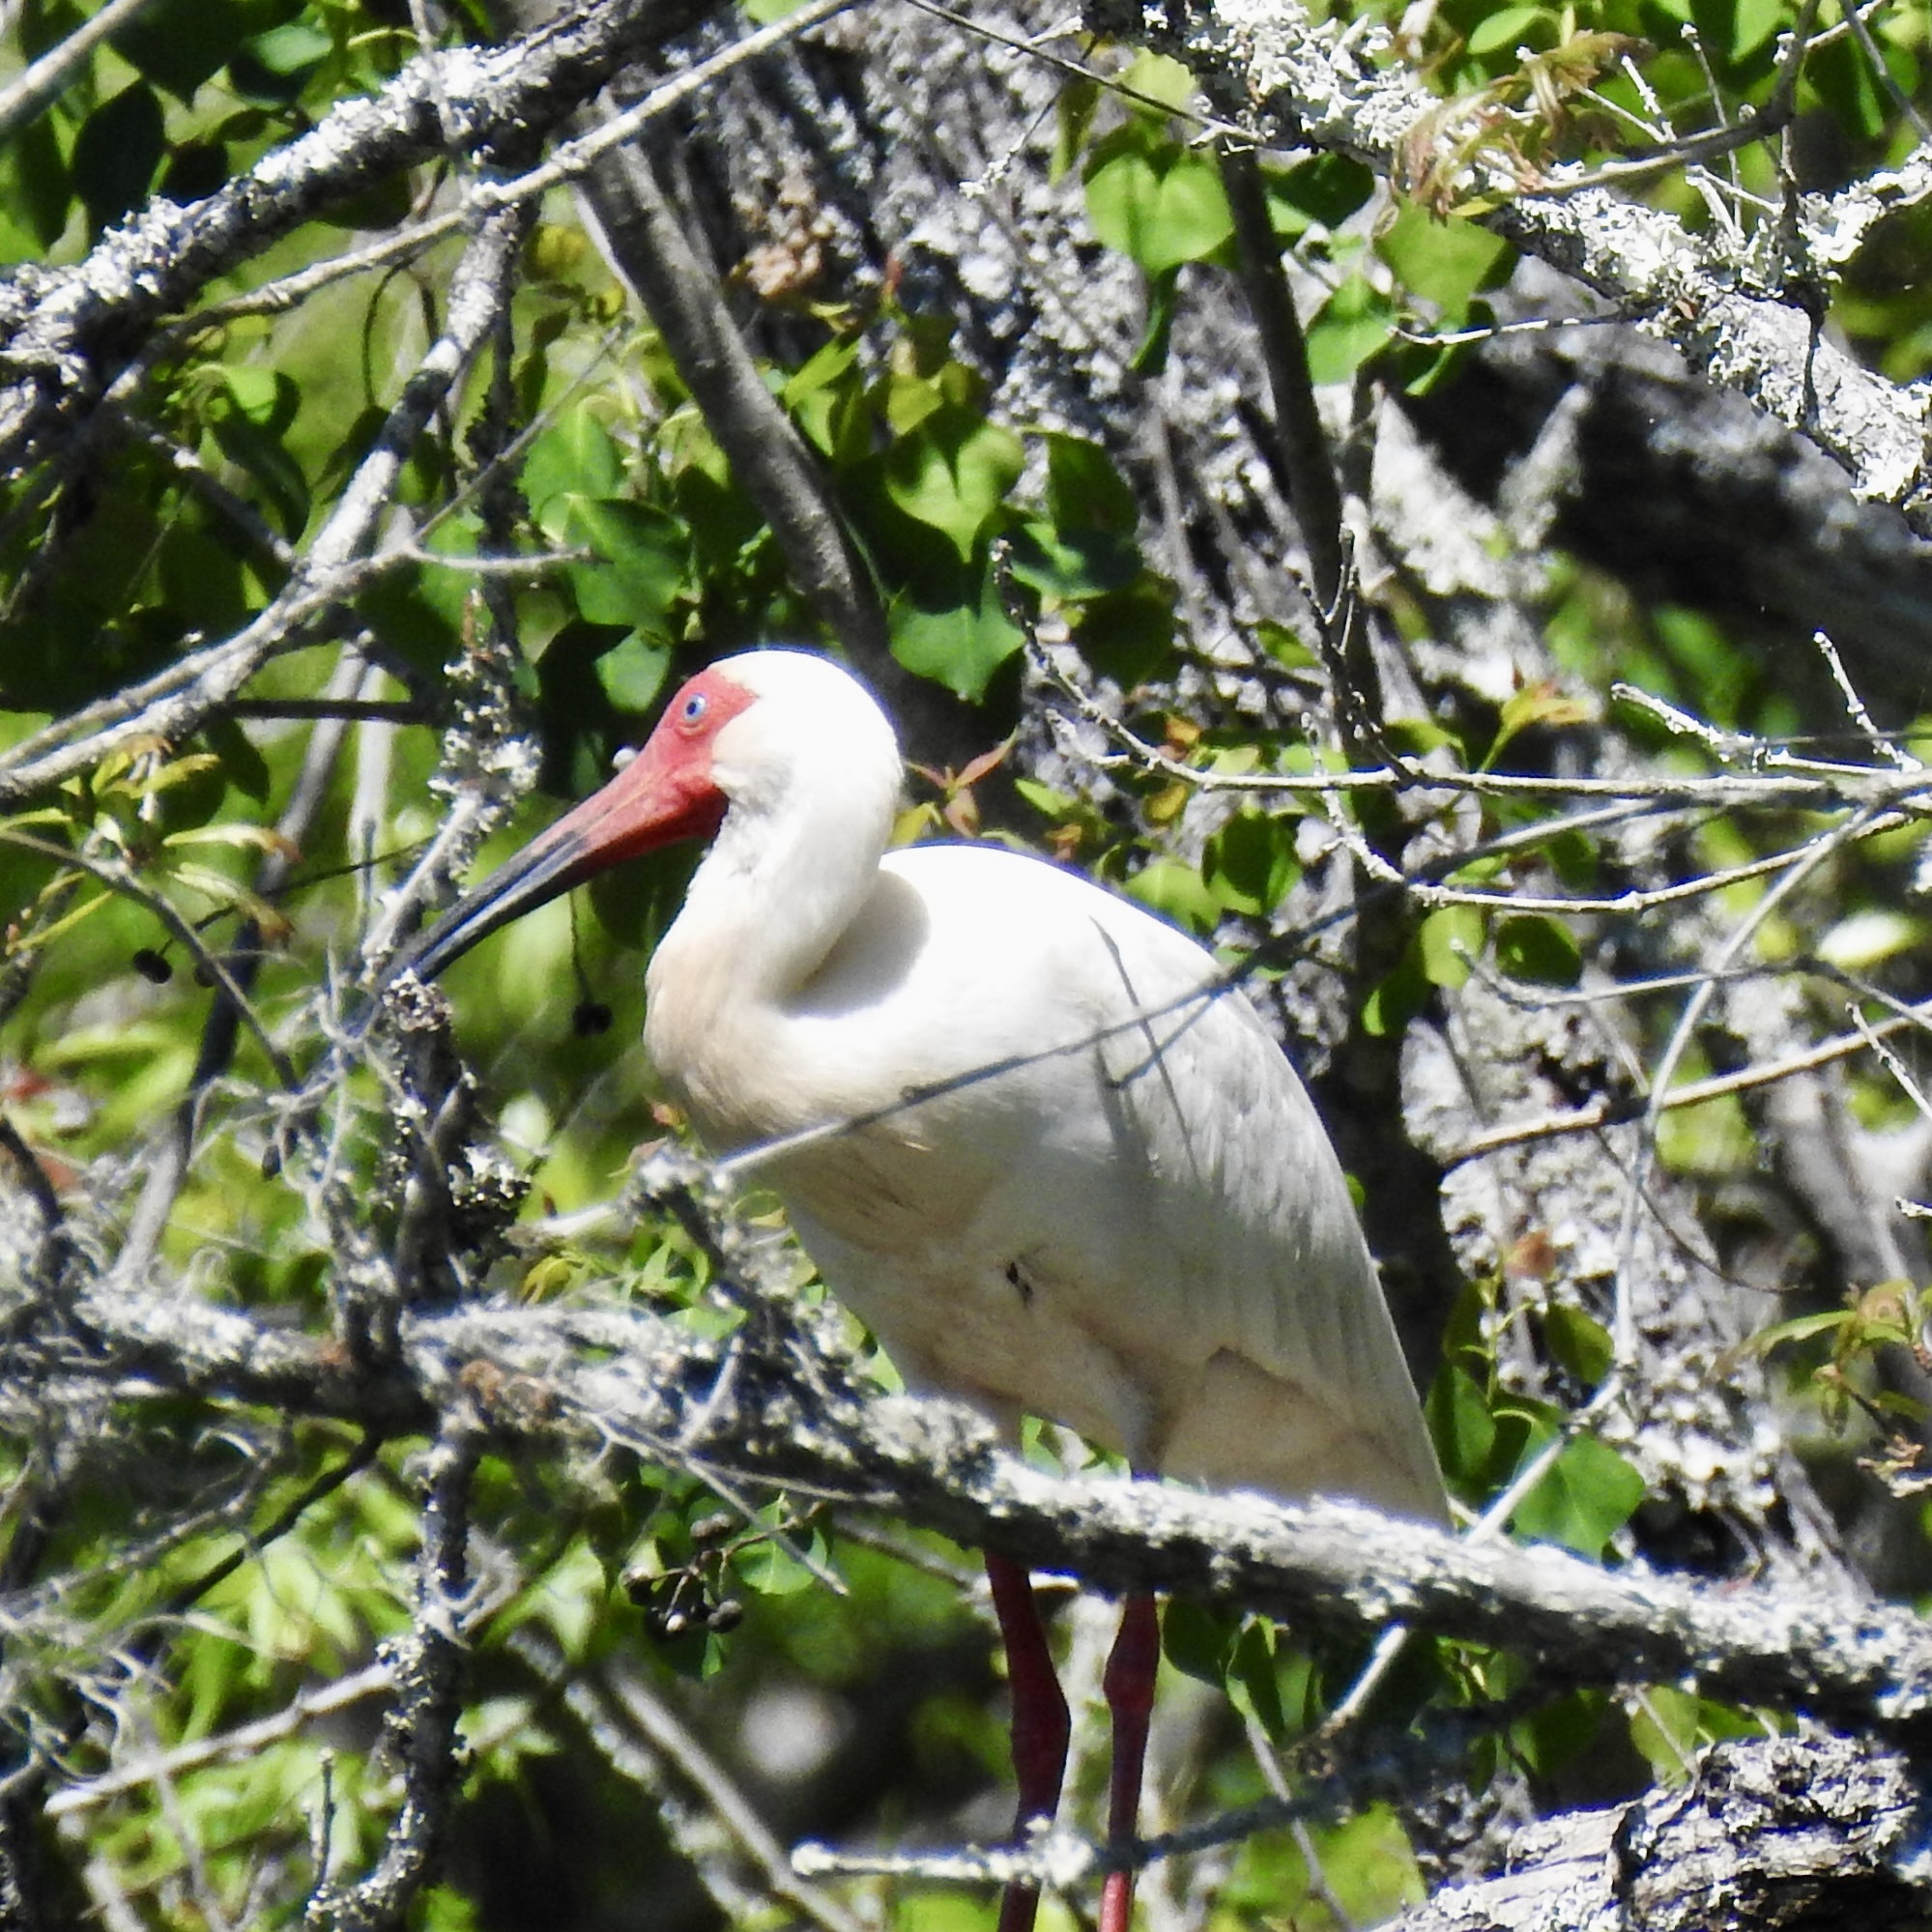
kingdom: Animalia
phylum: Chordata
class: Aves
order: Pelecaniformes
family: Threskiornithidae
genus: Eudocimus
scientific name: Eudocimus albus
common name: White ibis
